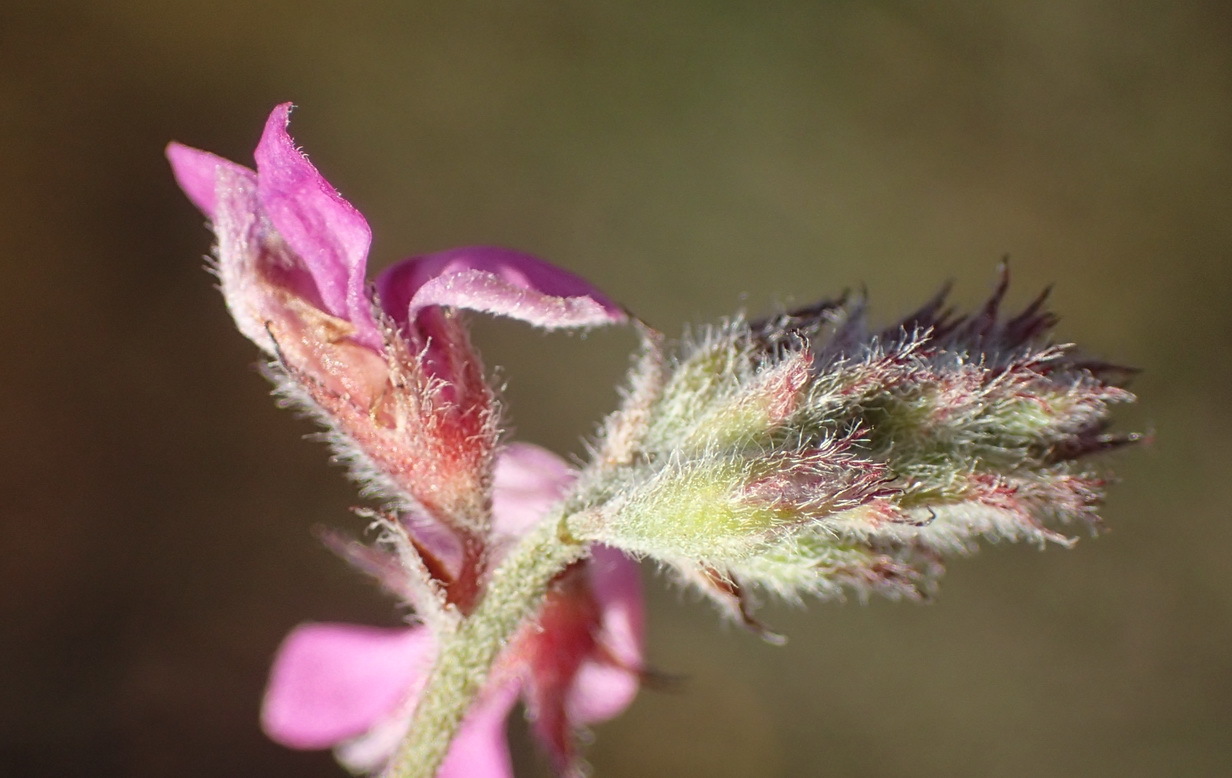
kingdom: Plantae
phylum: Tracheophyta
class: Magnoliopsida
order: Fabales
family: Fabaceae
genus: Indigofera
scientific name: Indigofera alopecuroides
